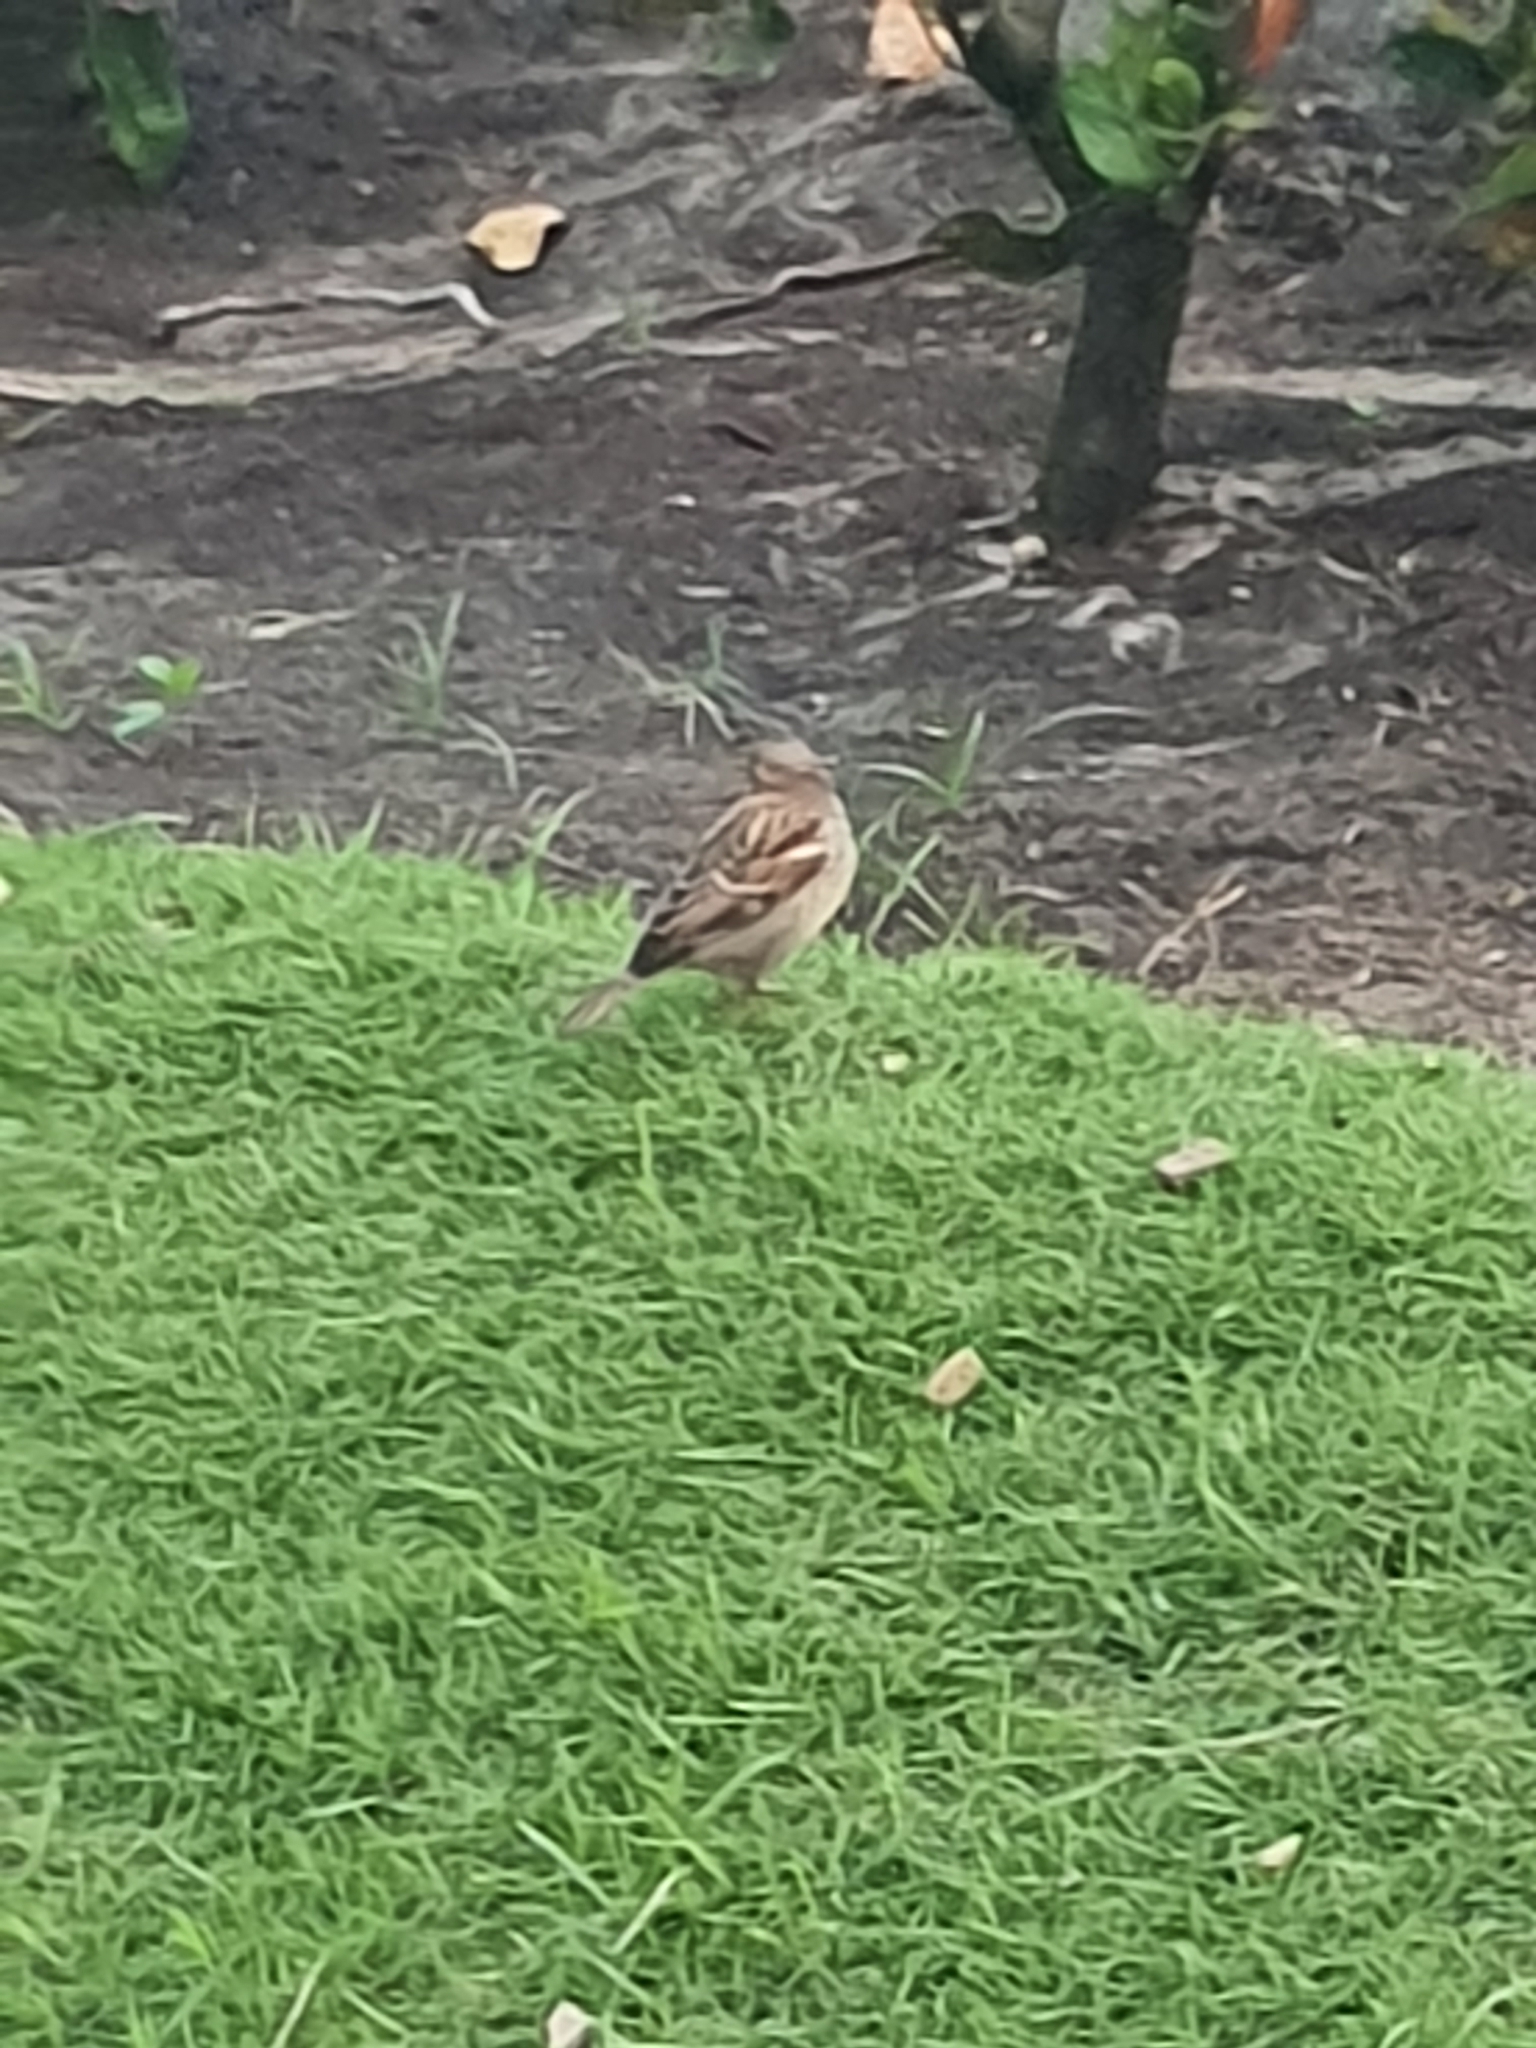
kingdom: Animalia
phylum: Chordata
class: Aves
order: Passeriformes
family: Passeridae
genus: Passer
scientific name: Passer domesticus
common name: House sparrow
